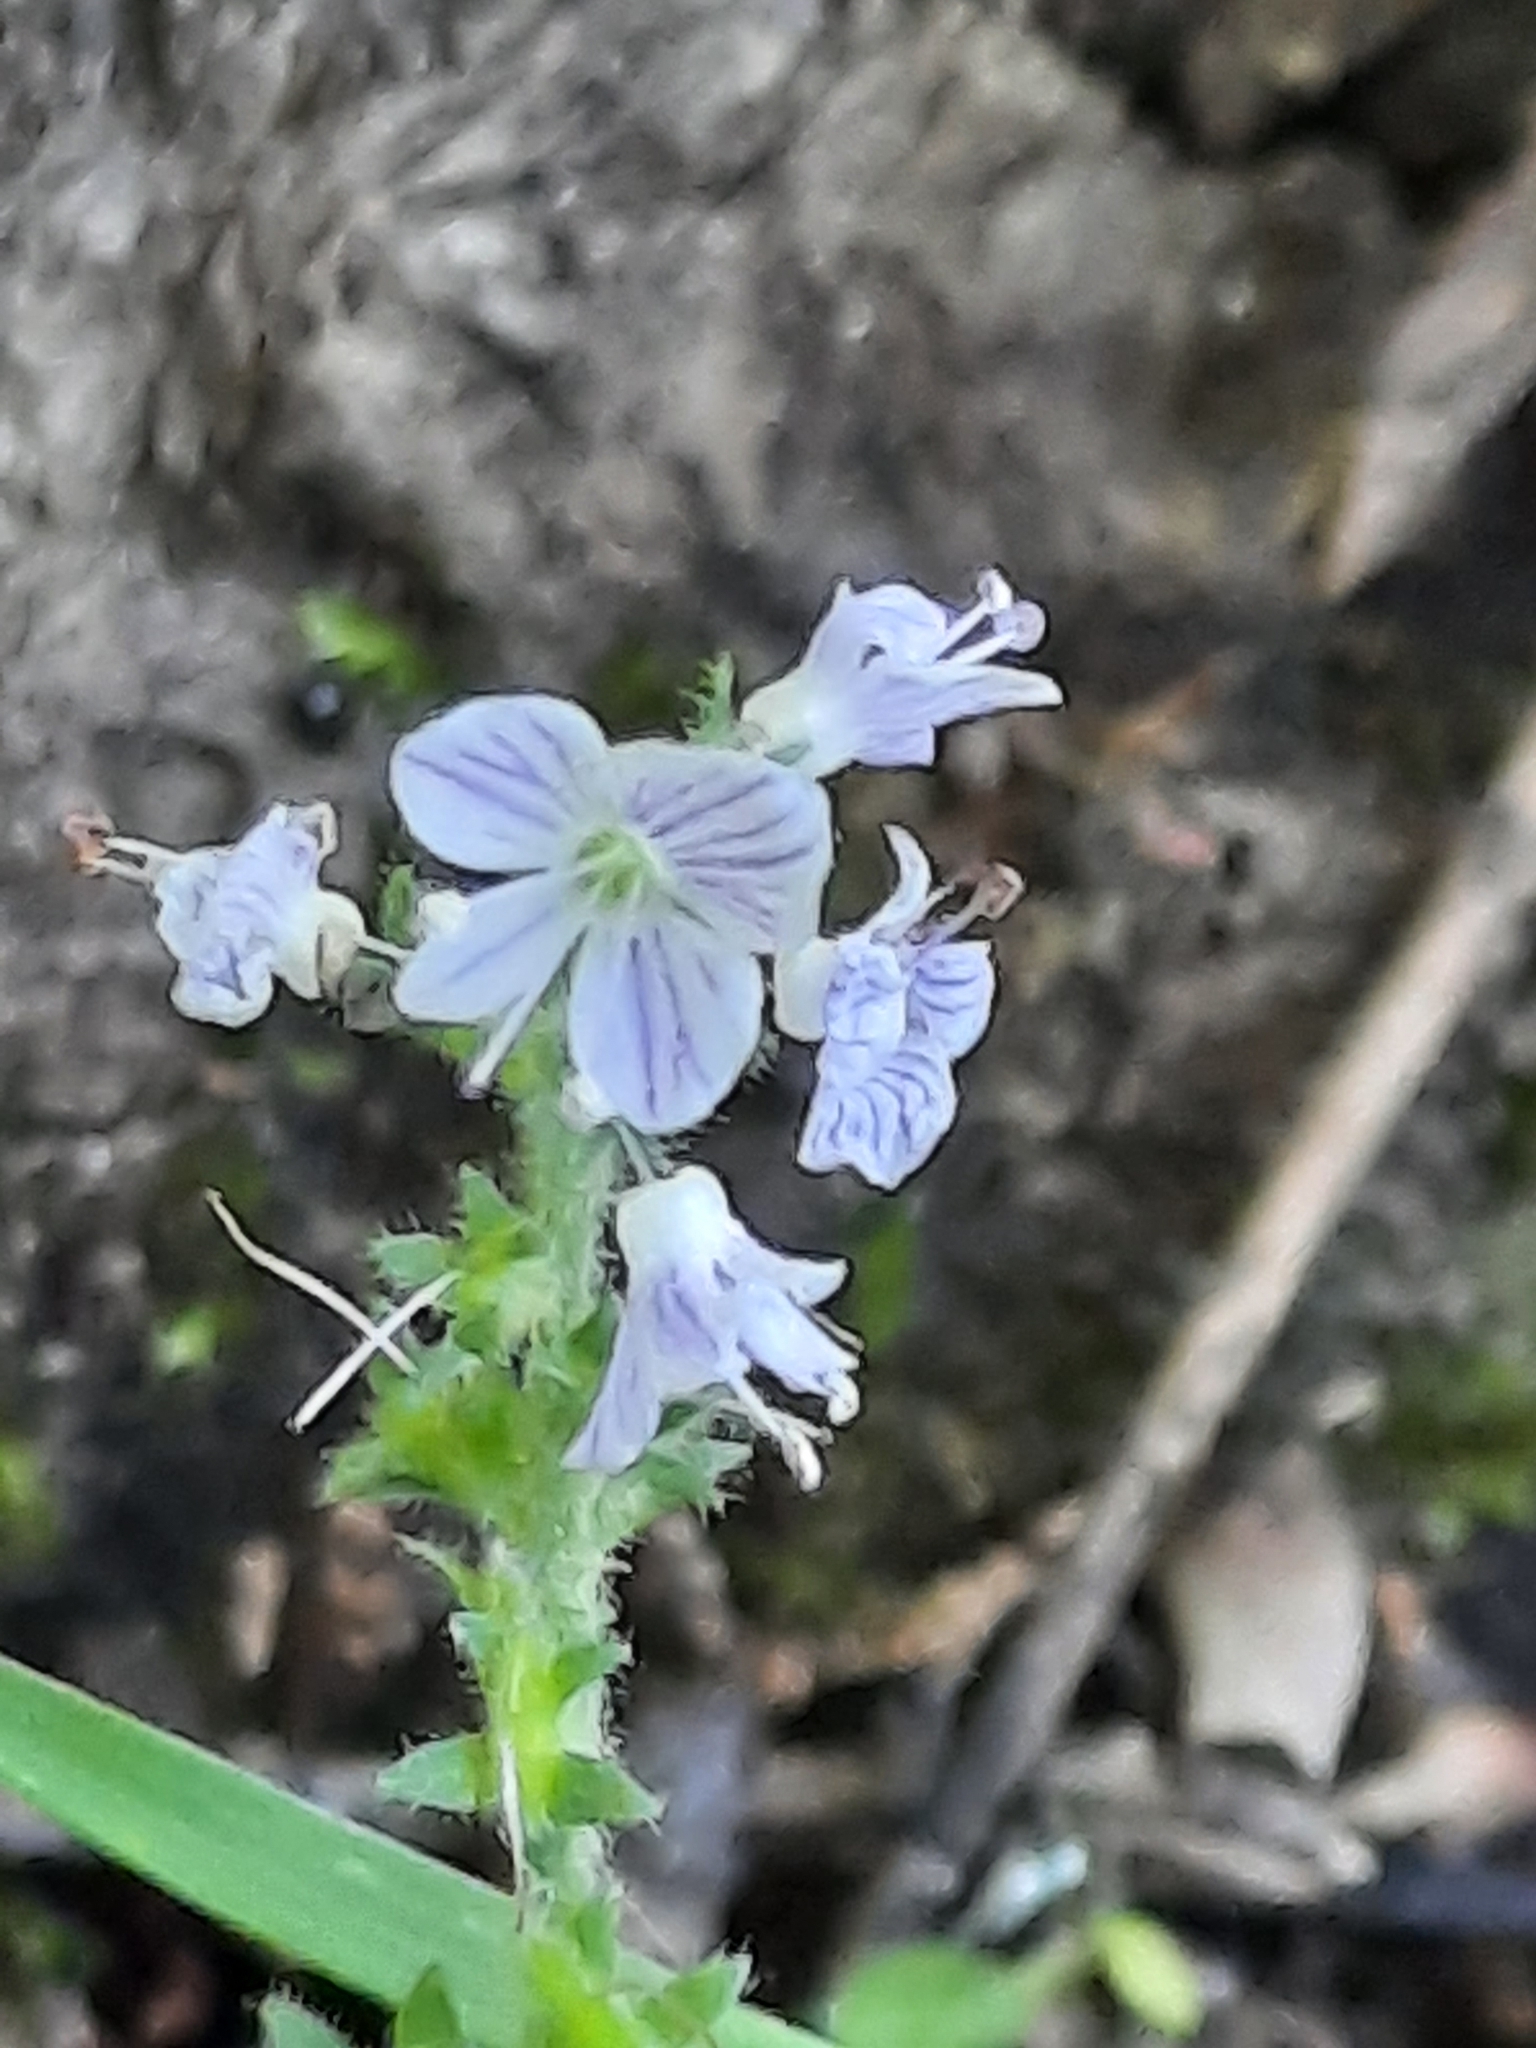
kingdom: Plantae
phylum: Tracheophyta
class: Magnoliopsida
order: Lamiales
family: Plantaginaceae
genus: Veronica
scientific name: Veronica officinalis
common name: Common speedwell
